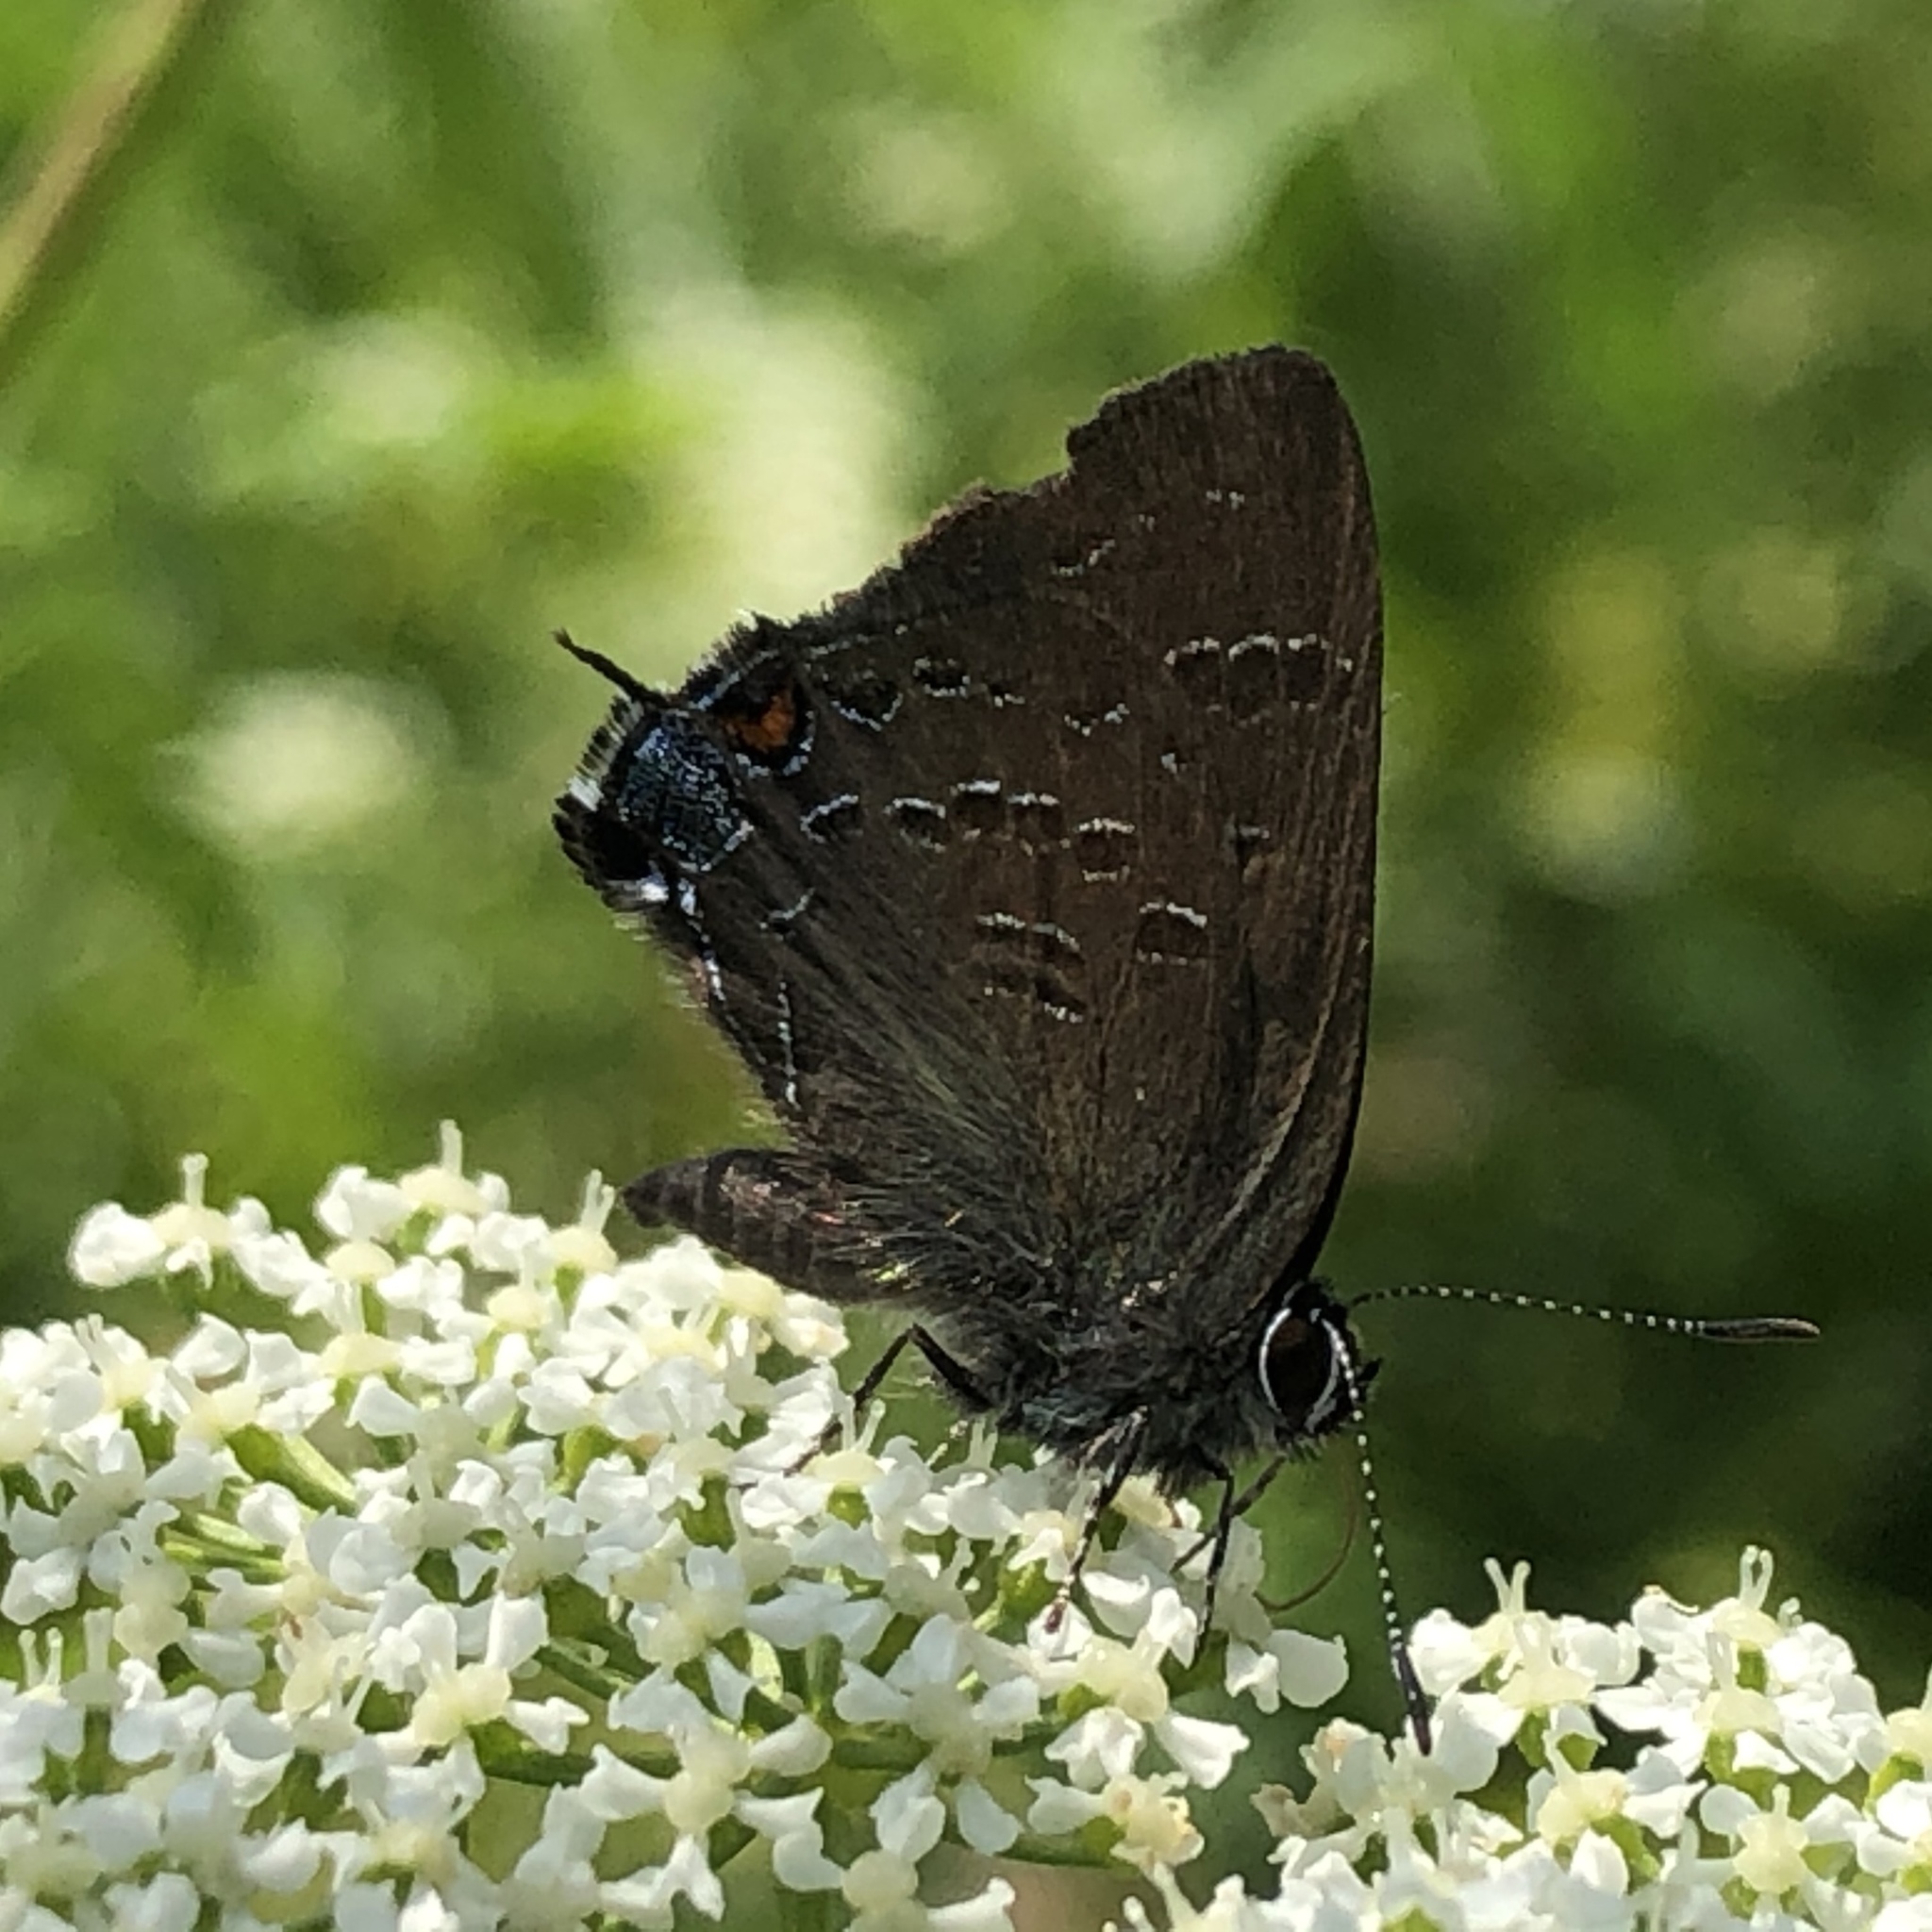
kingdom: Animalia
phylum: Arthropoda
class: Insecta
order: Lepidoptera
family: Lycaenidae
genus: Satyrium
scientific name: Satyrium calanus
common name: Banded hairstreak
